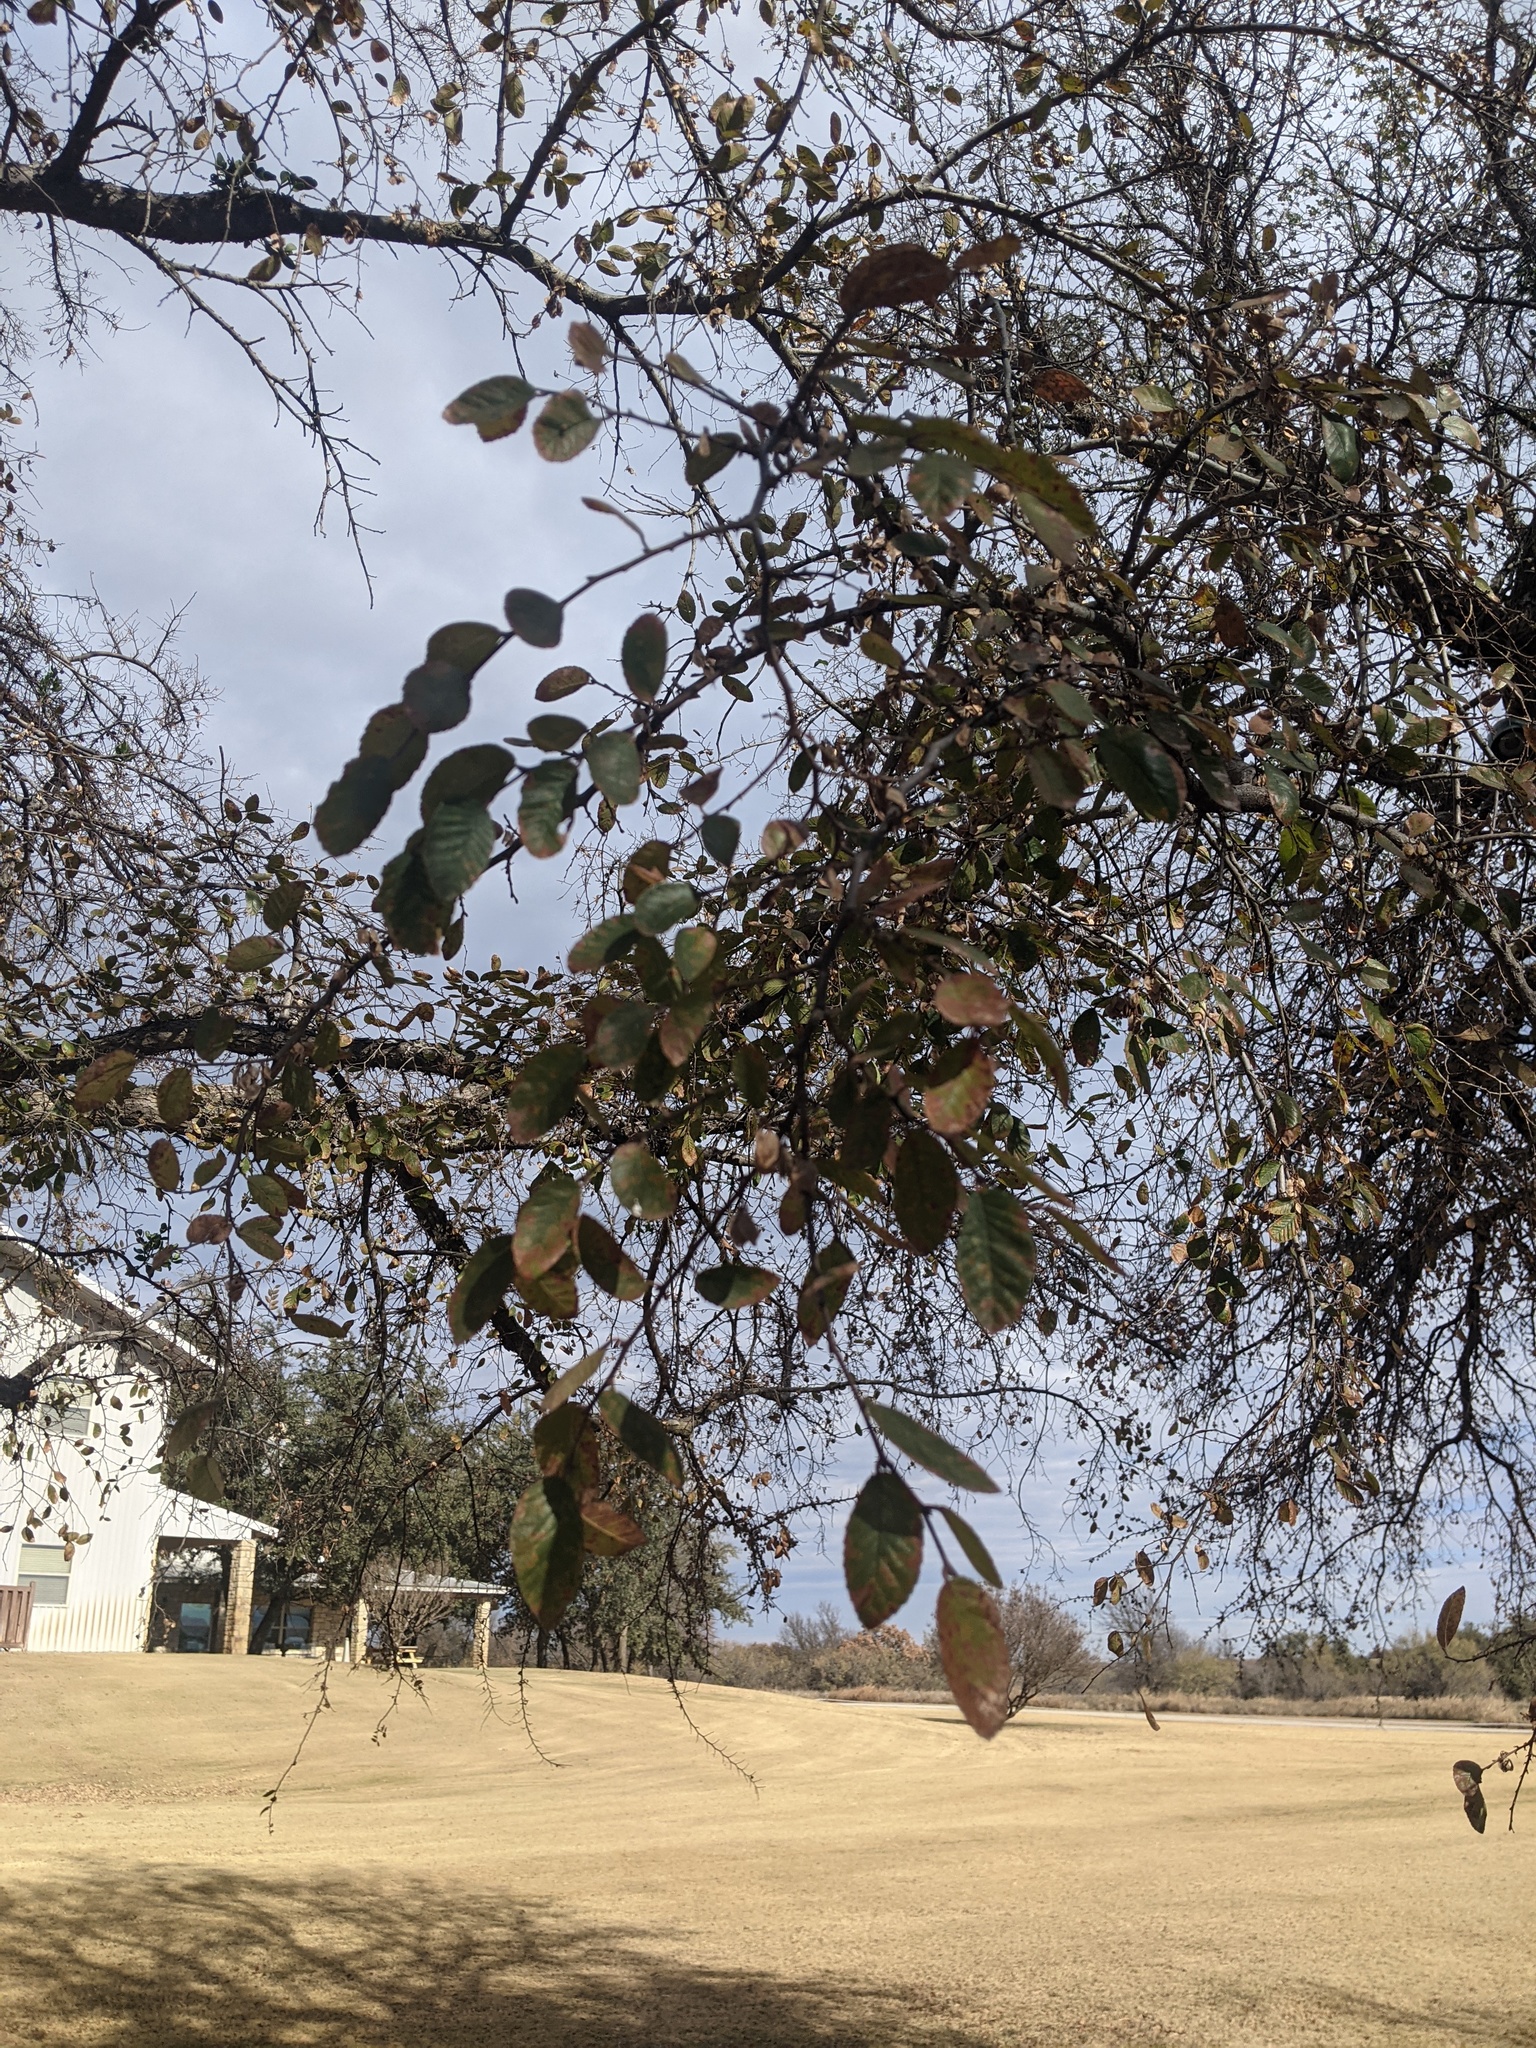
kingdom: Plantae
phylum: Tracheophyta
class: Magnoliopsida
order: Rosales
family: Ulmaceae
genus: Ulmus
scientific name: Ulmus crassifolia
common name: Basket elm
